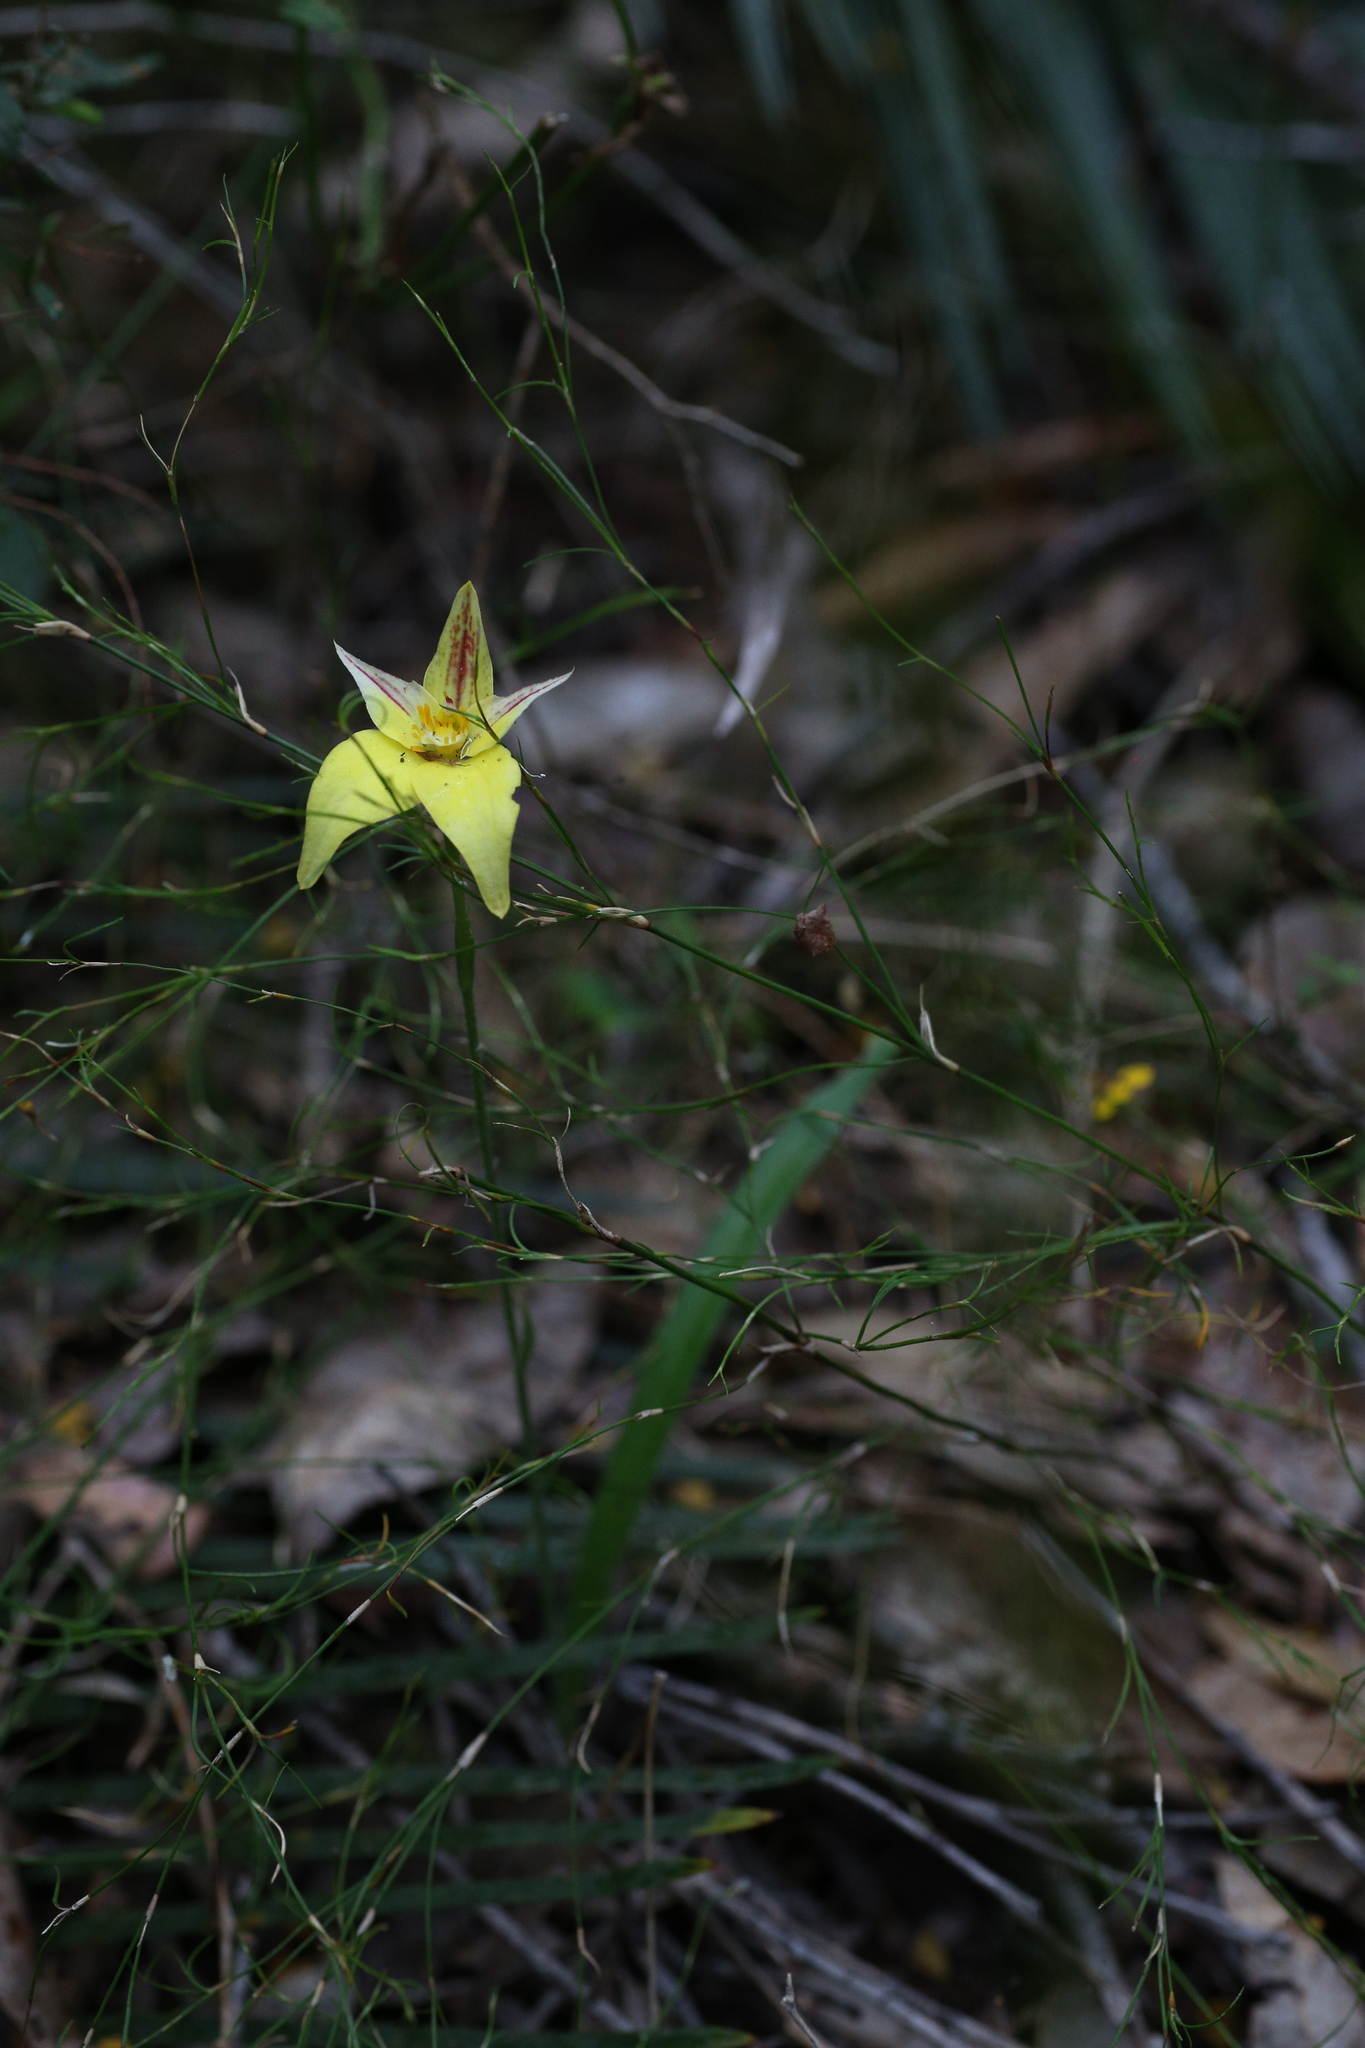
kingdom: Plantae
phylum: Tracheophyta
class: Liliopsida
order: Asparagales
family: Orchidaceae
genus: Caladenia
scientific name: Caladenia flava
